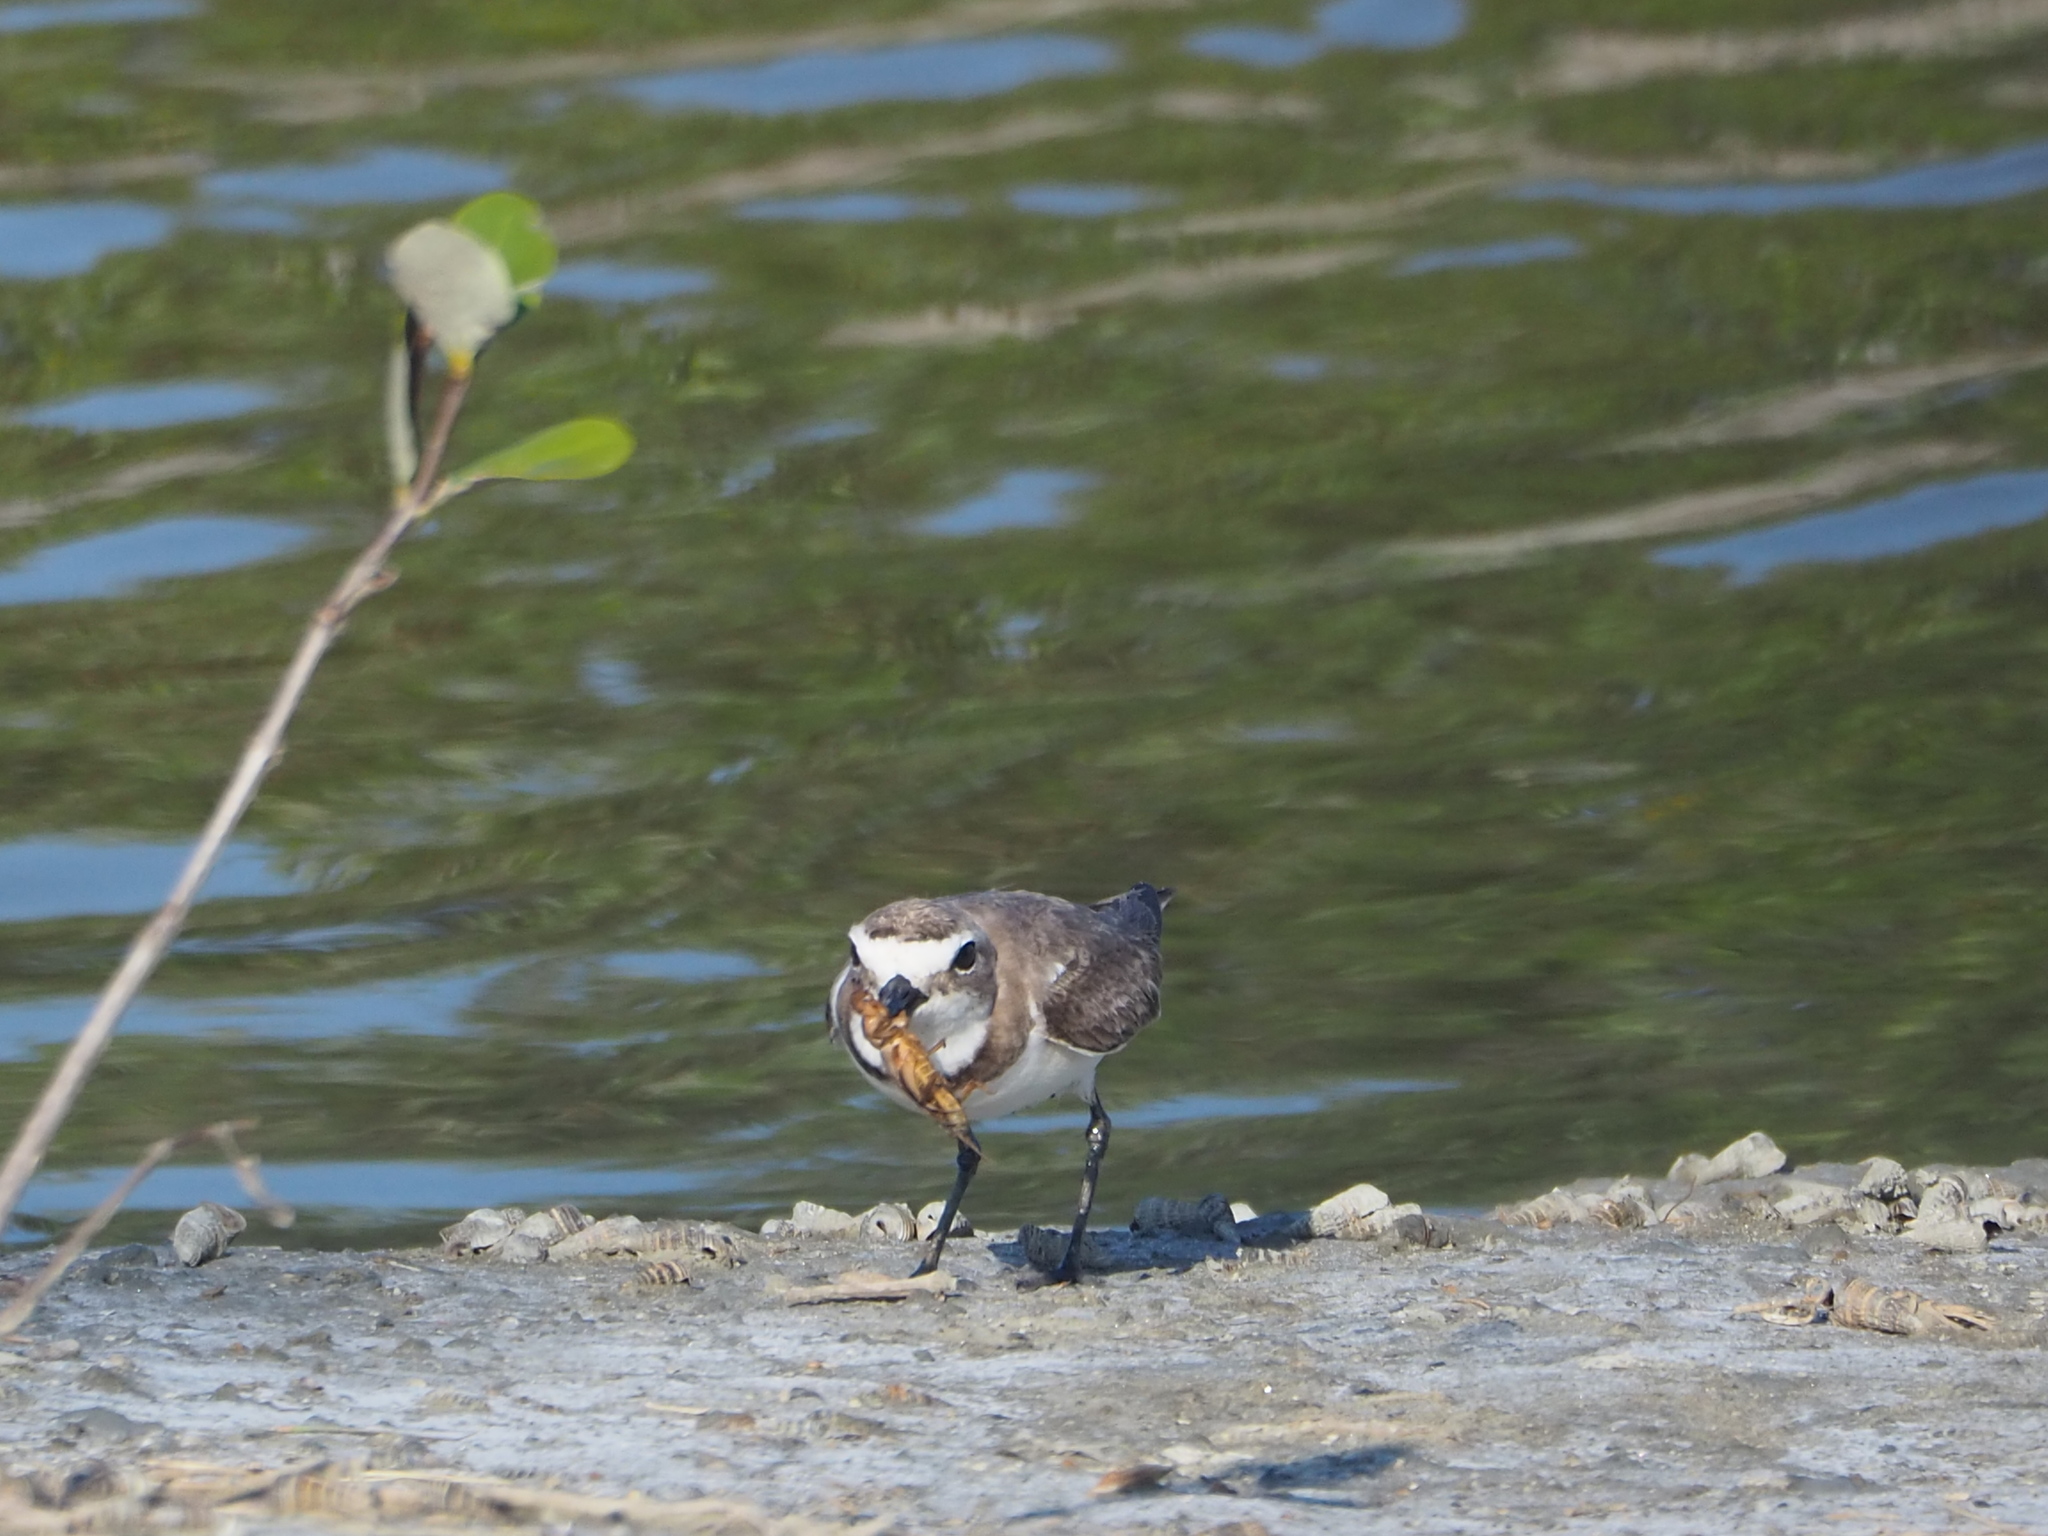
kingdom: Animalia
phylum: Chordata
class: Aves
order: Charadriiformes
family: Charadriidae
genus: Charadrius
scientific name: Charadrius alexandrinus
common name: Kentish plover
